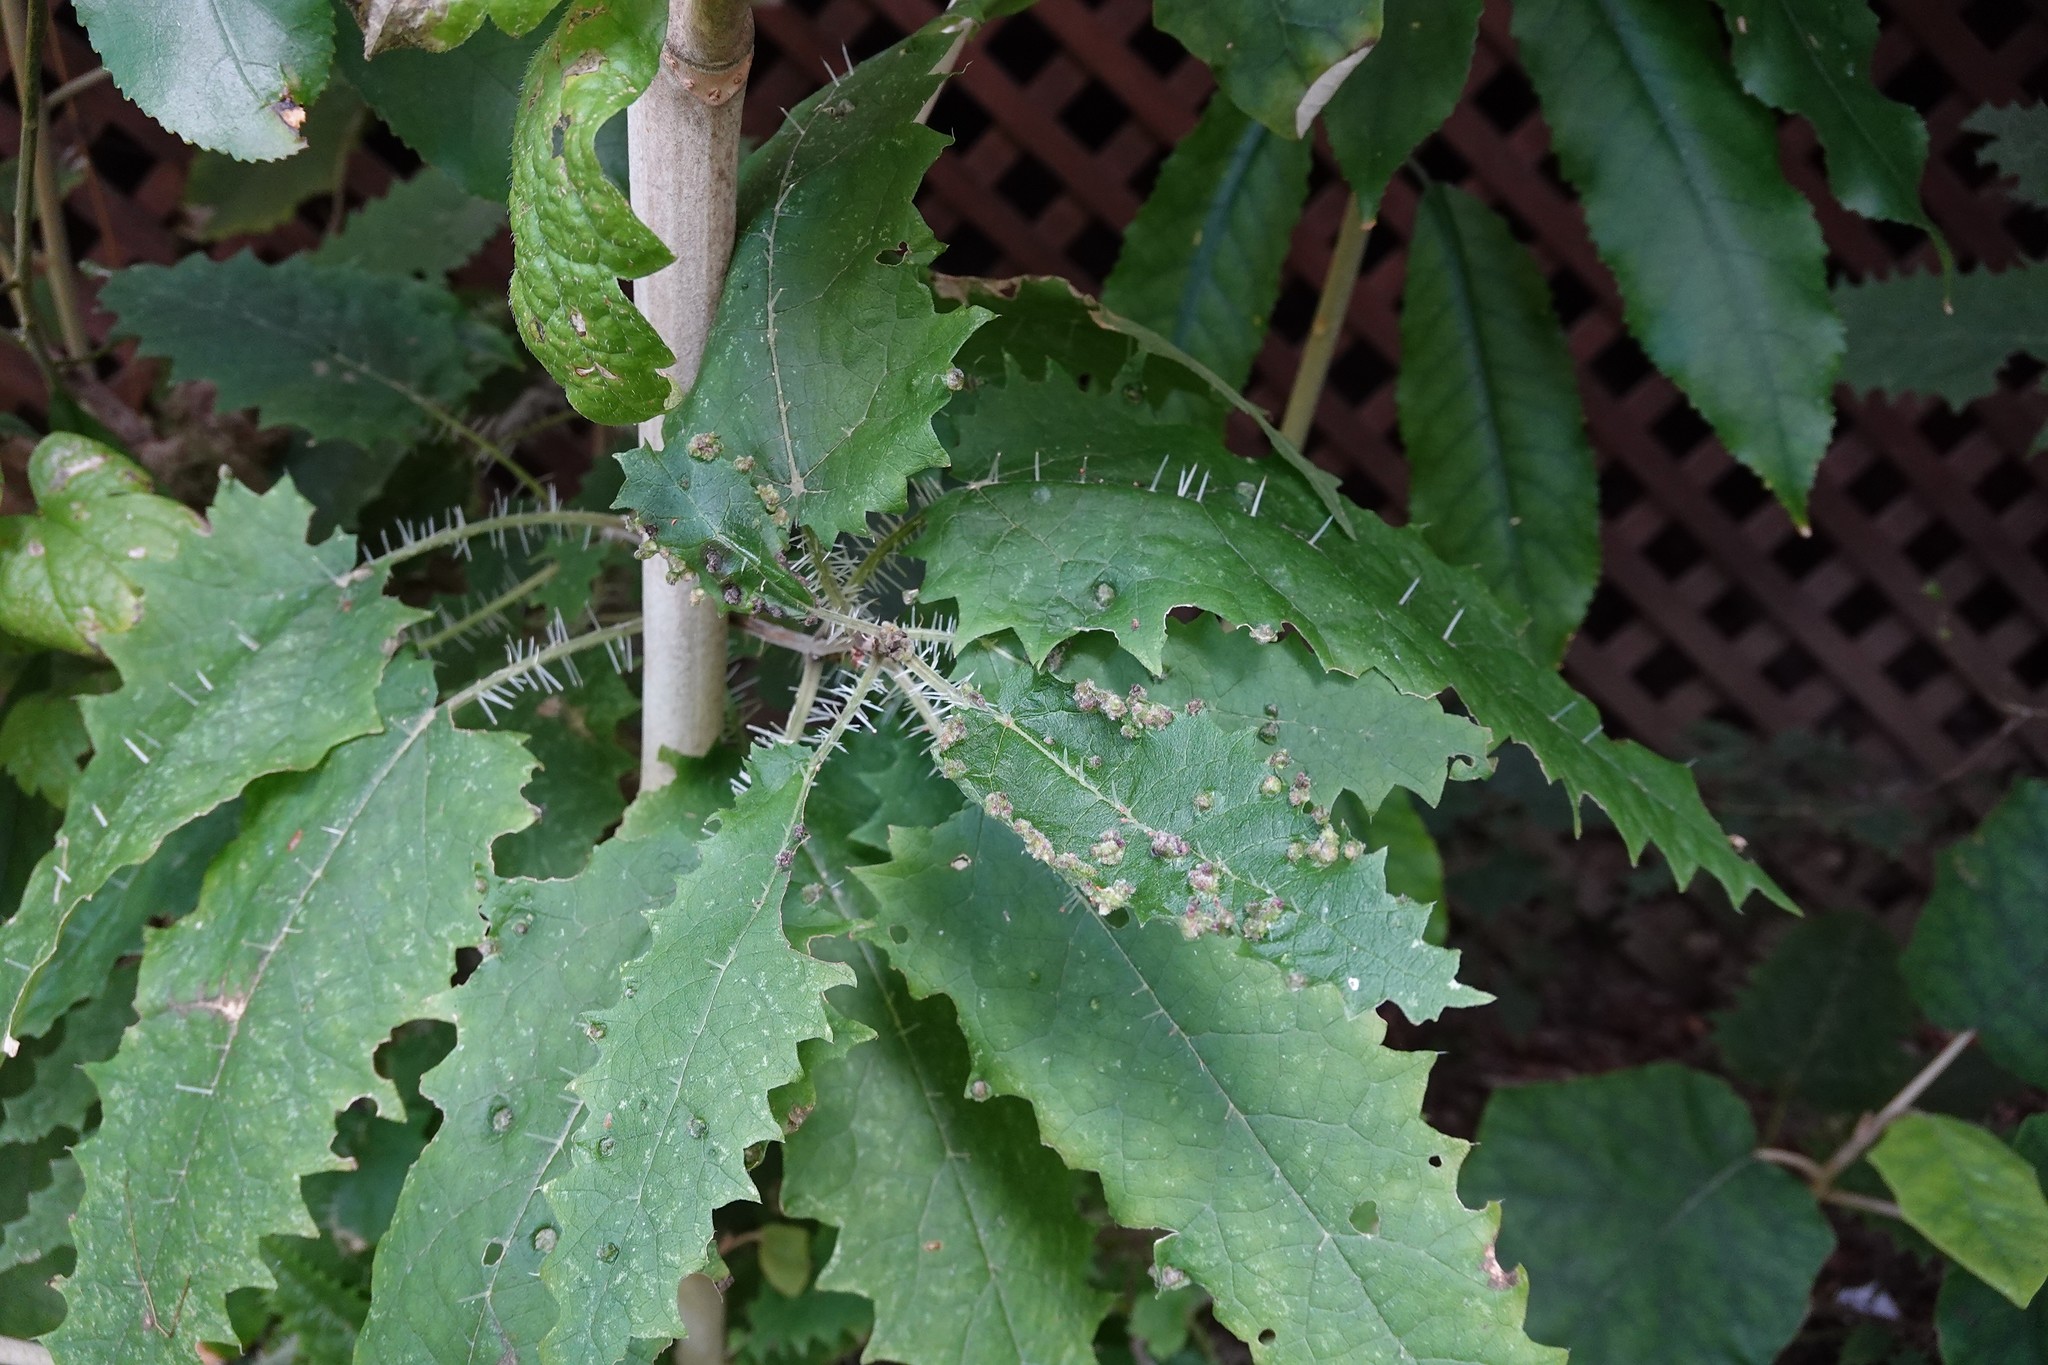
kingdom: Animalia
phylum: Arthropoda
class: Arachnida
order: Trombidiformes
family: Eriophyidae
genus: Vittacus
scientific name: Vittacus
